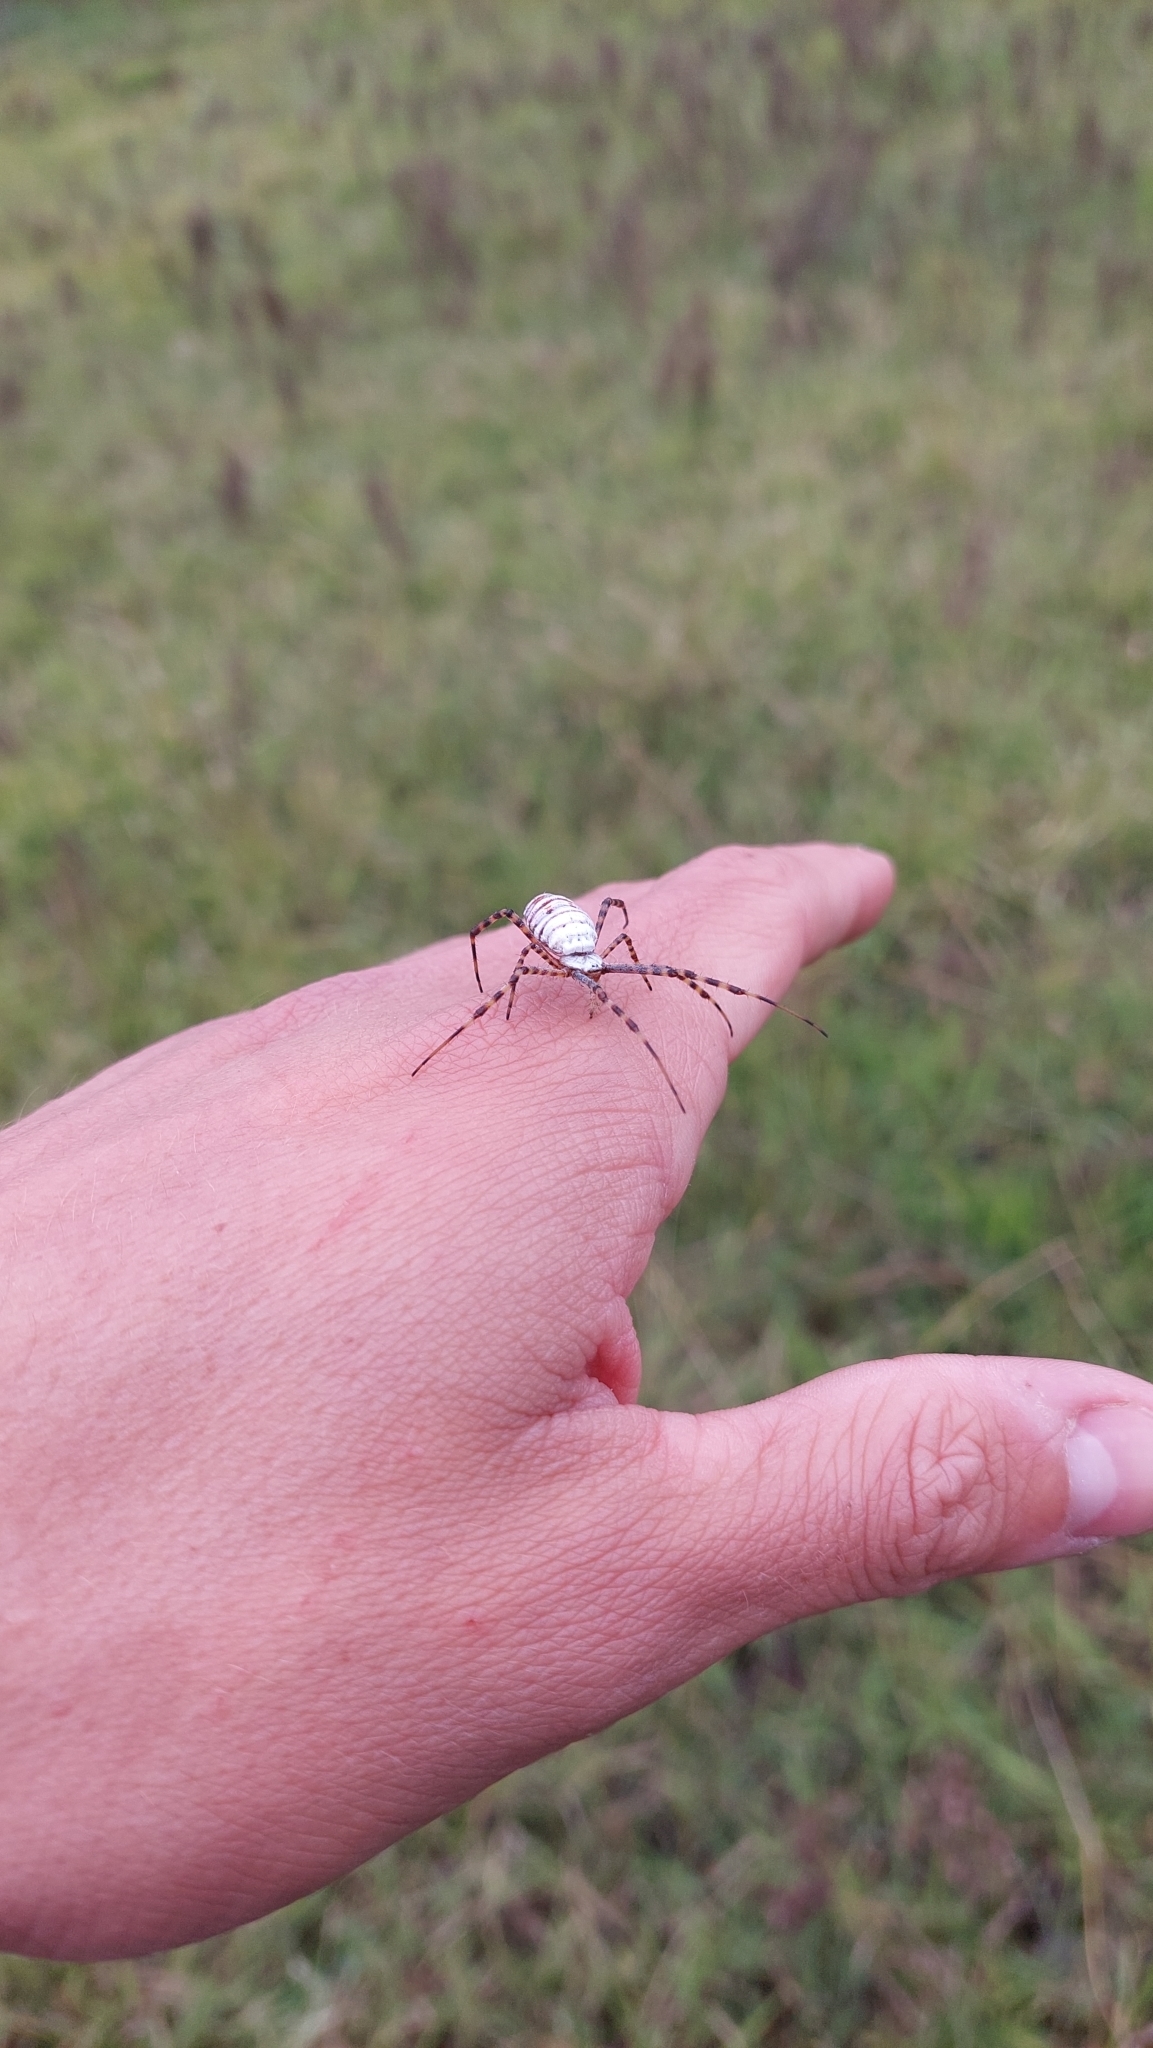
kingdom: Animalia
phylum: Arthropoda
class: Arachnida
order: Araneae
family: Araneidae
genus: Argiope
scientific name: Argiope trifasciata
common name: Banded garden spider
